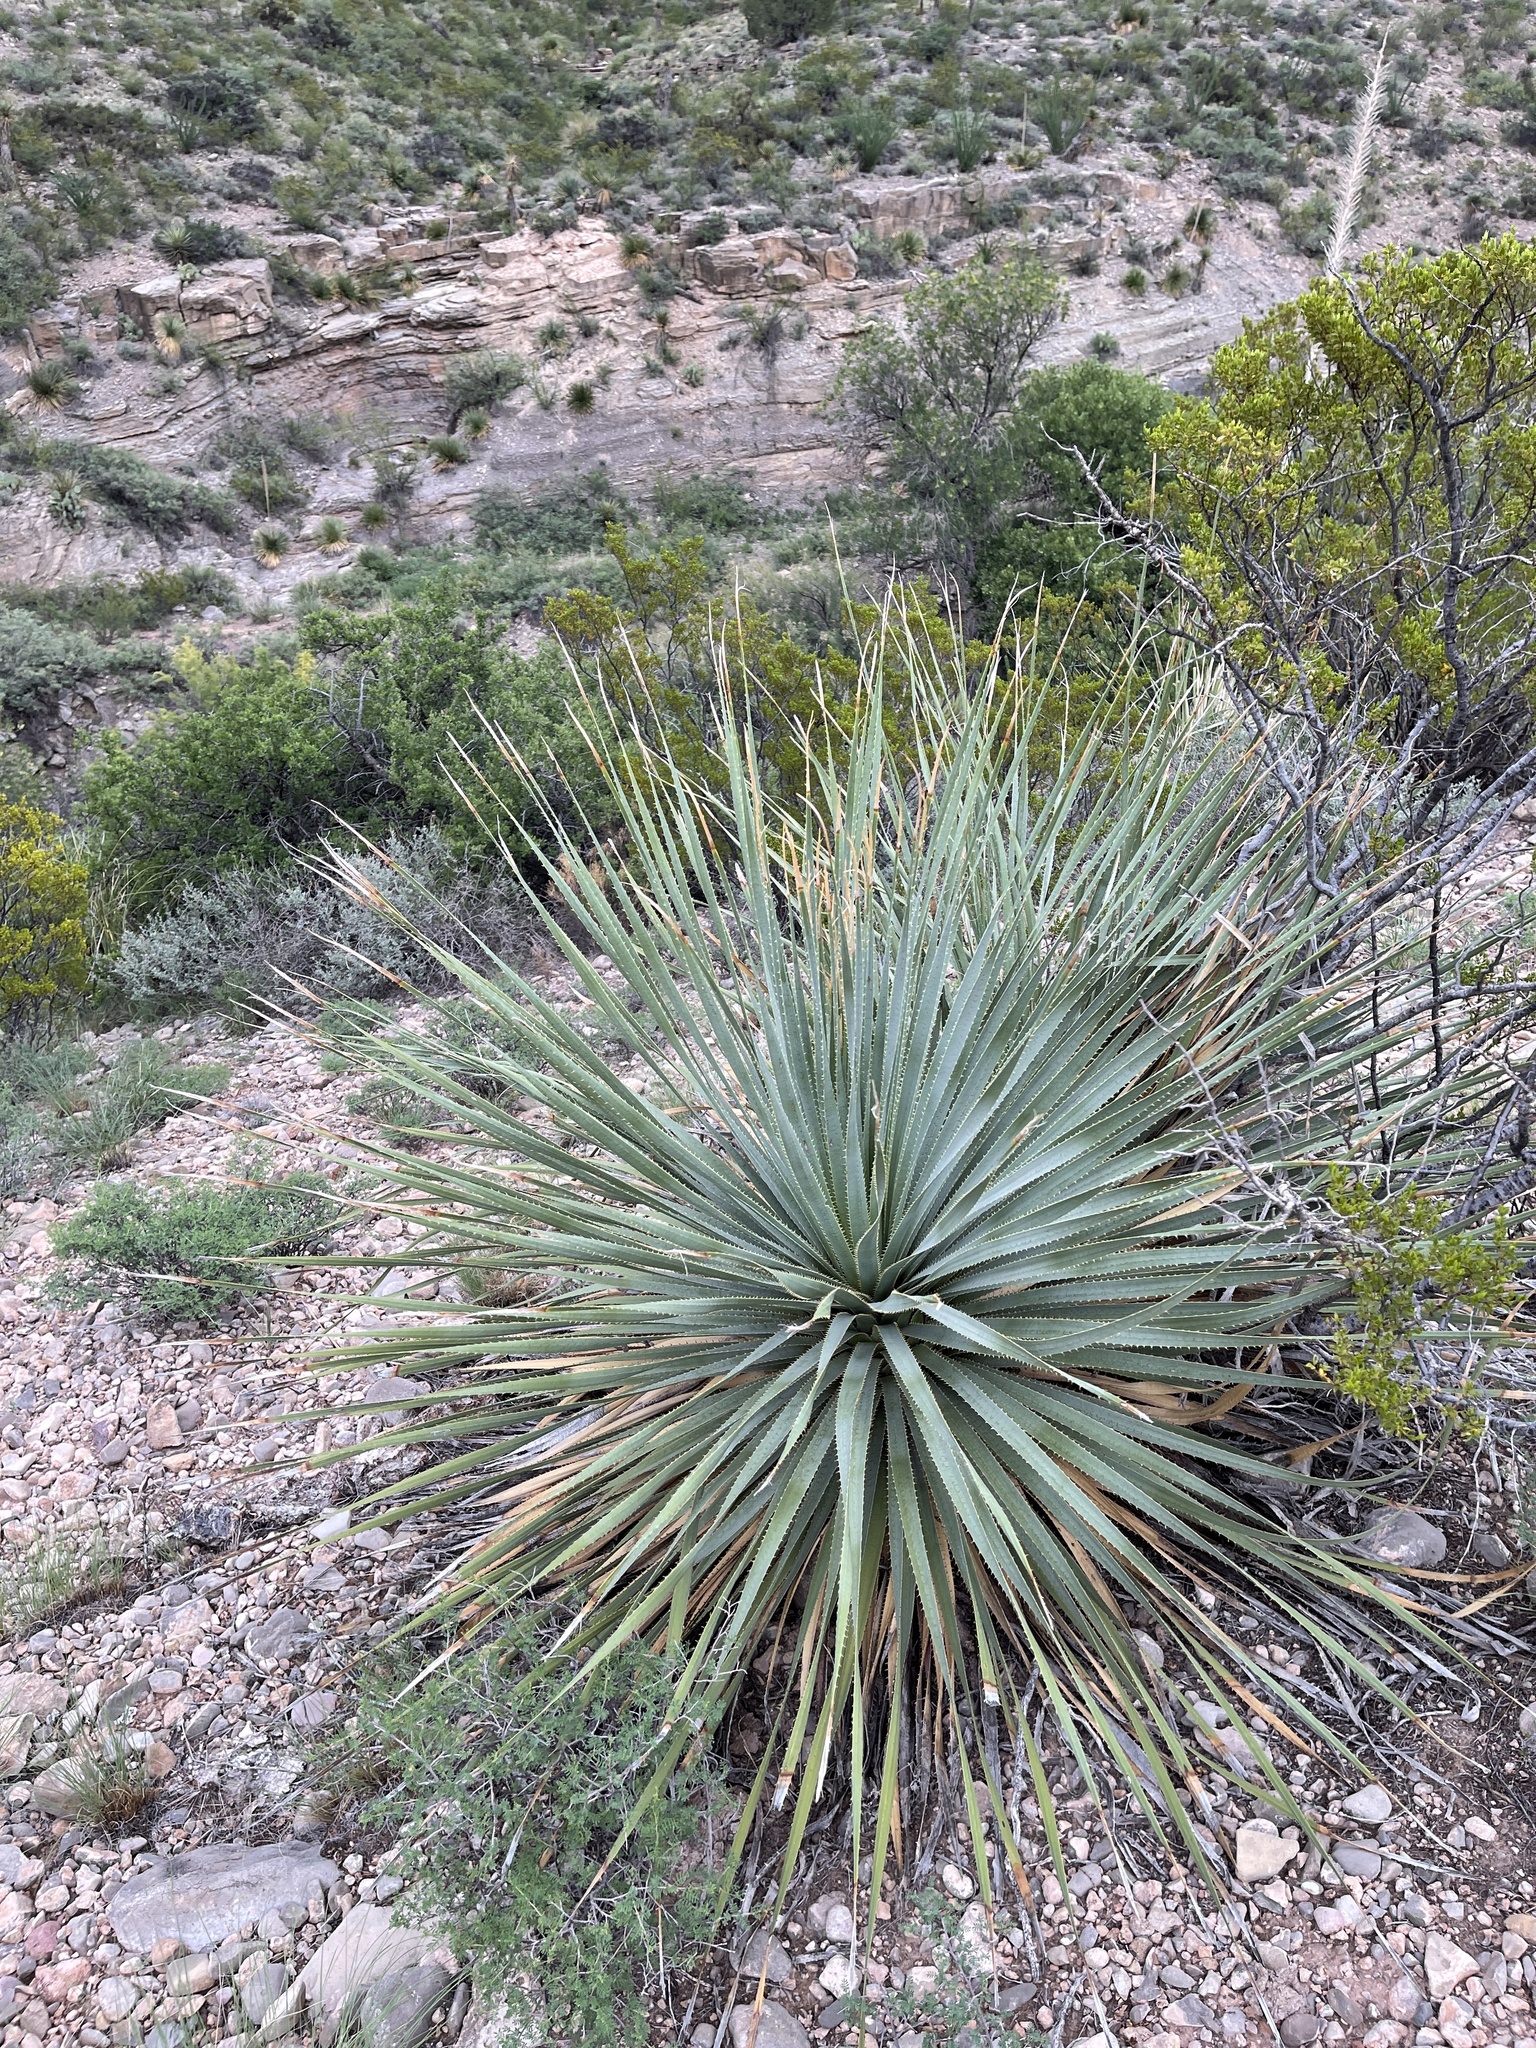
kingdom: Plantae
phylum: Tracheophyta
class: Liliopsida
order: Asparagales
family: Asparagaceae
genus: Dasylirion
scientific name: Dasylirion wheeleri
